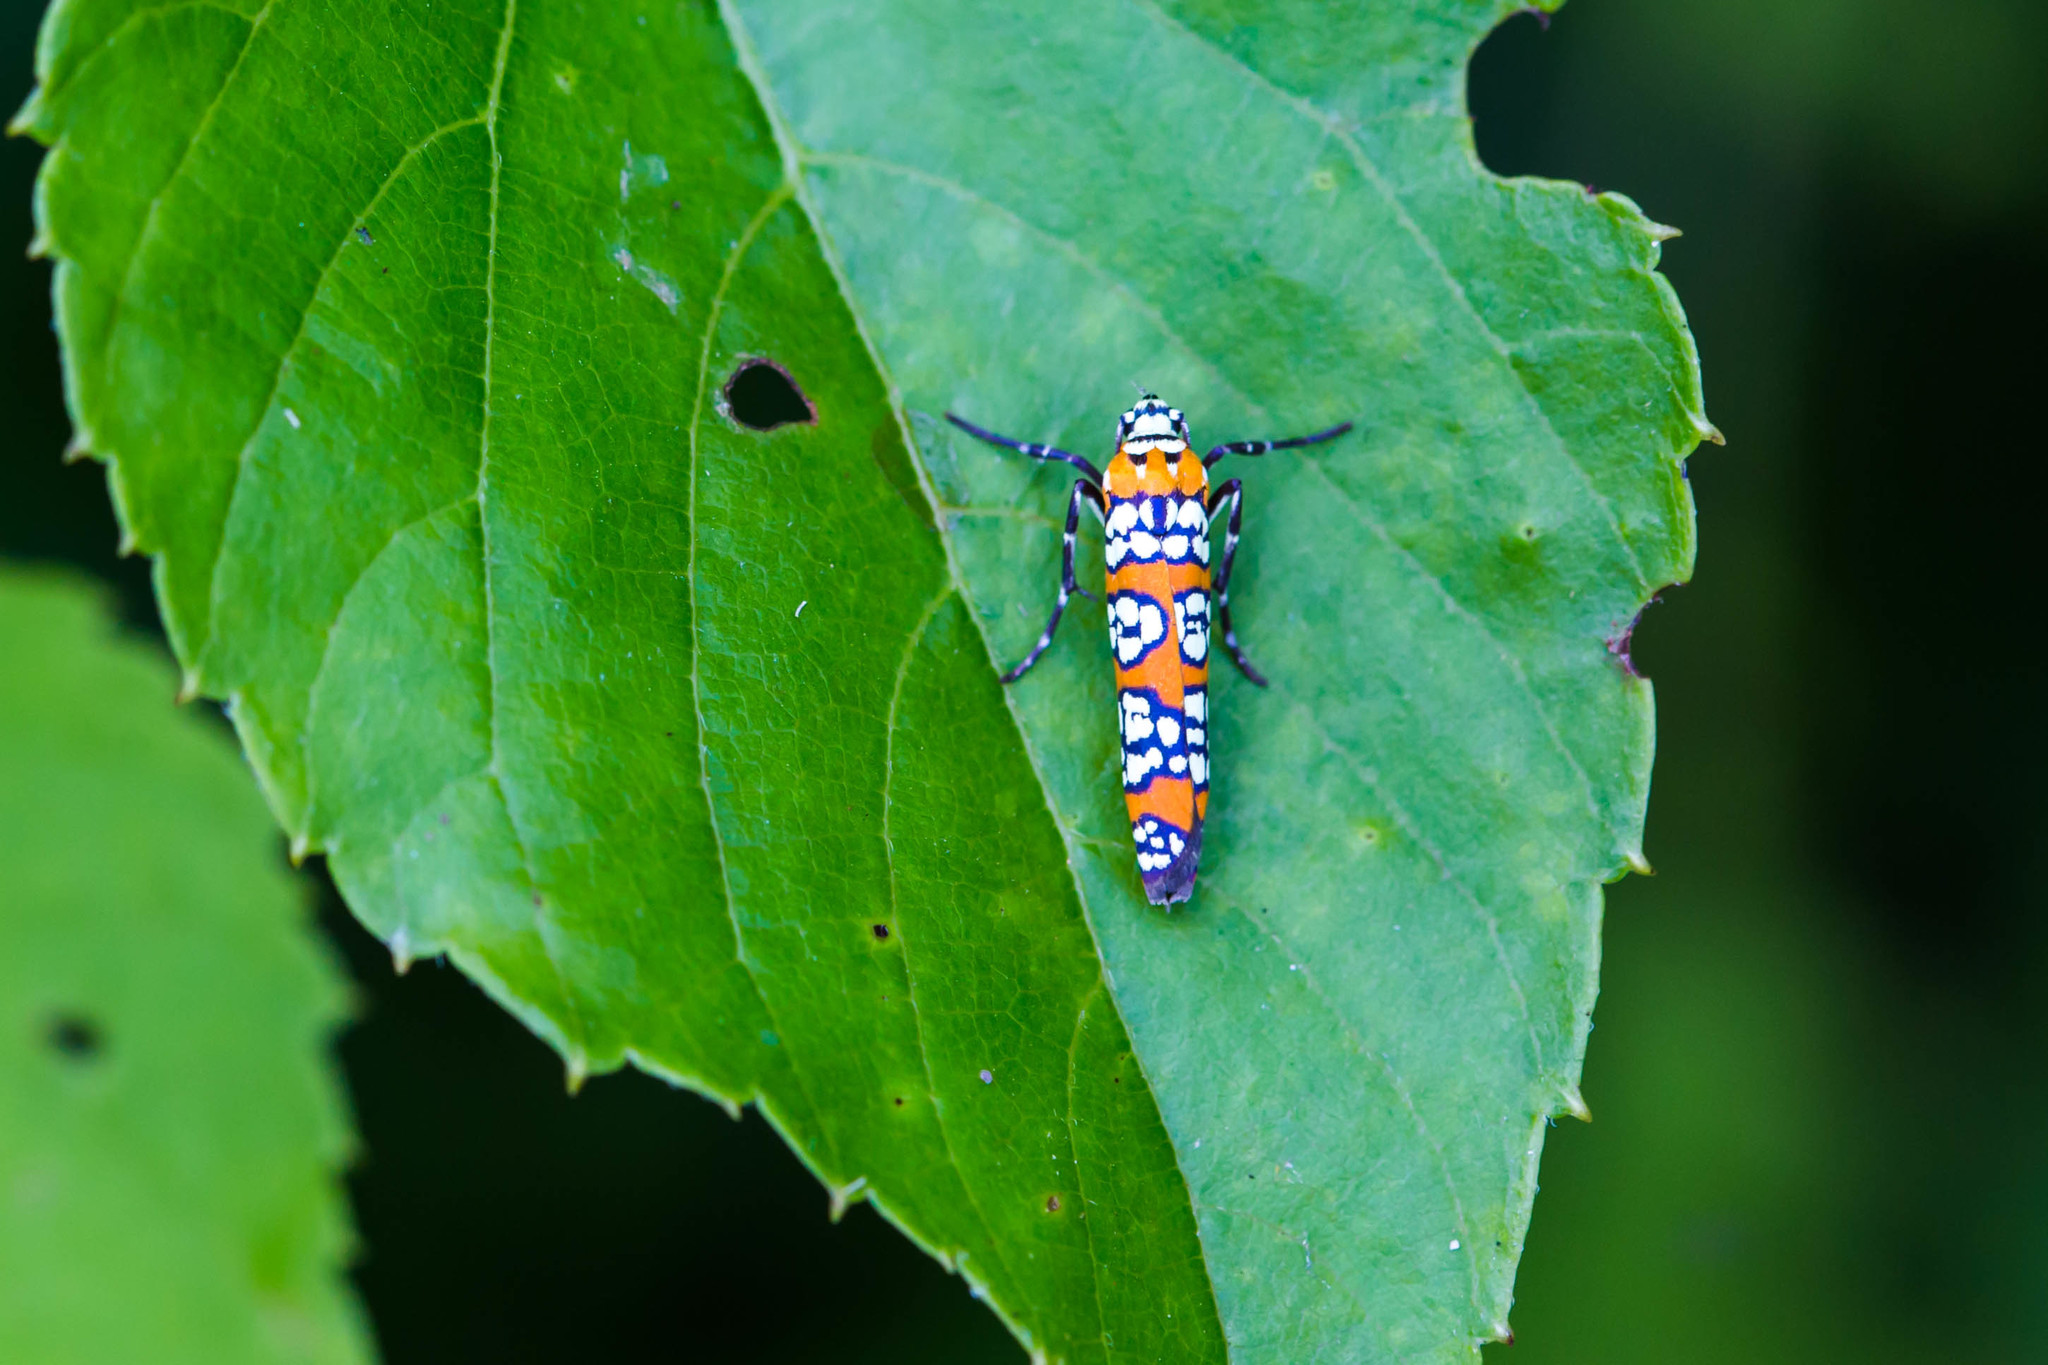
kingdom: Animalia
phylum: Arthropoda
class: Insecta
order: Lepidoptera
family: Attevidae
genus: Atteva
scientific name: Atteva punctella
